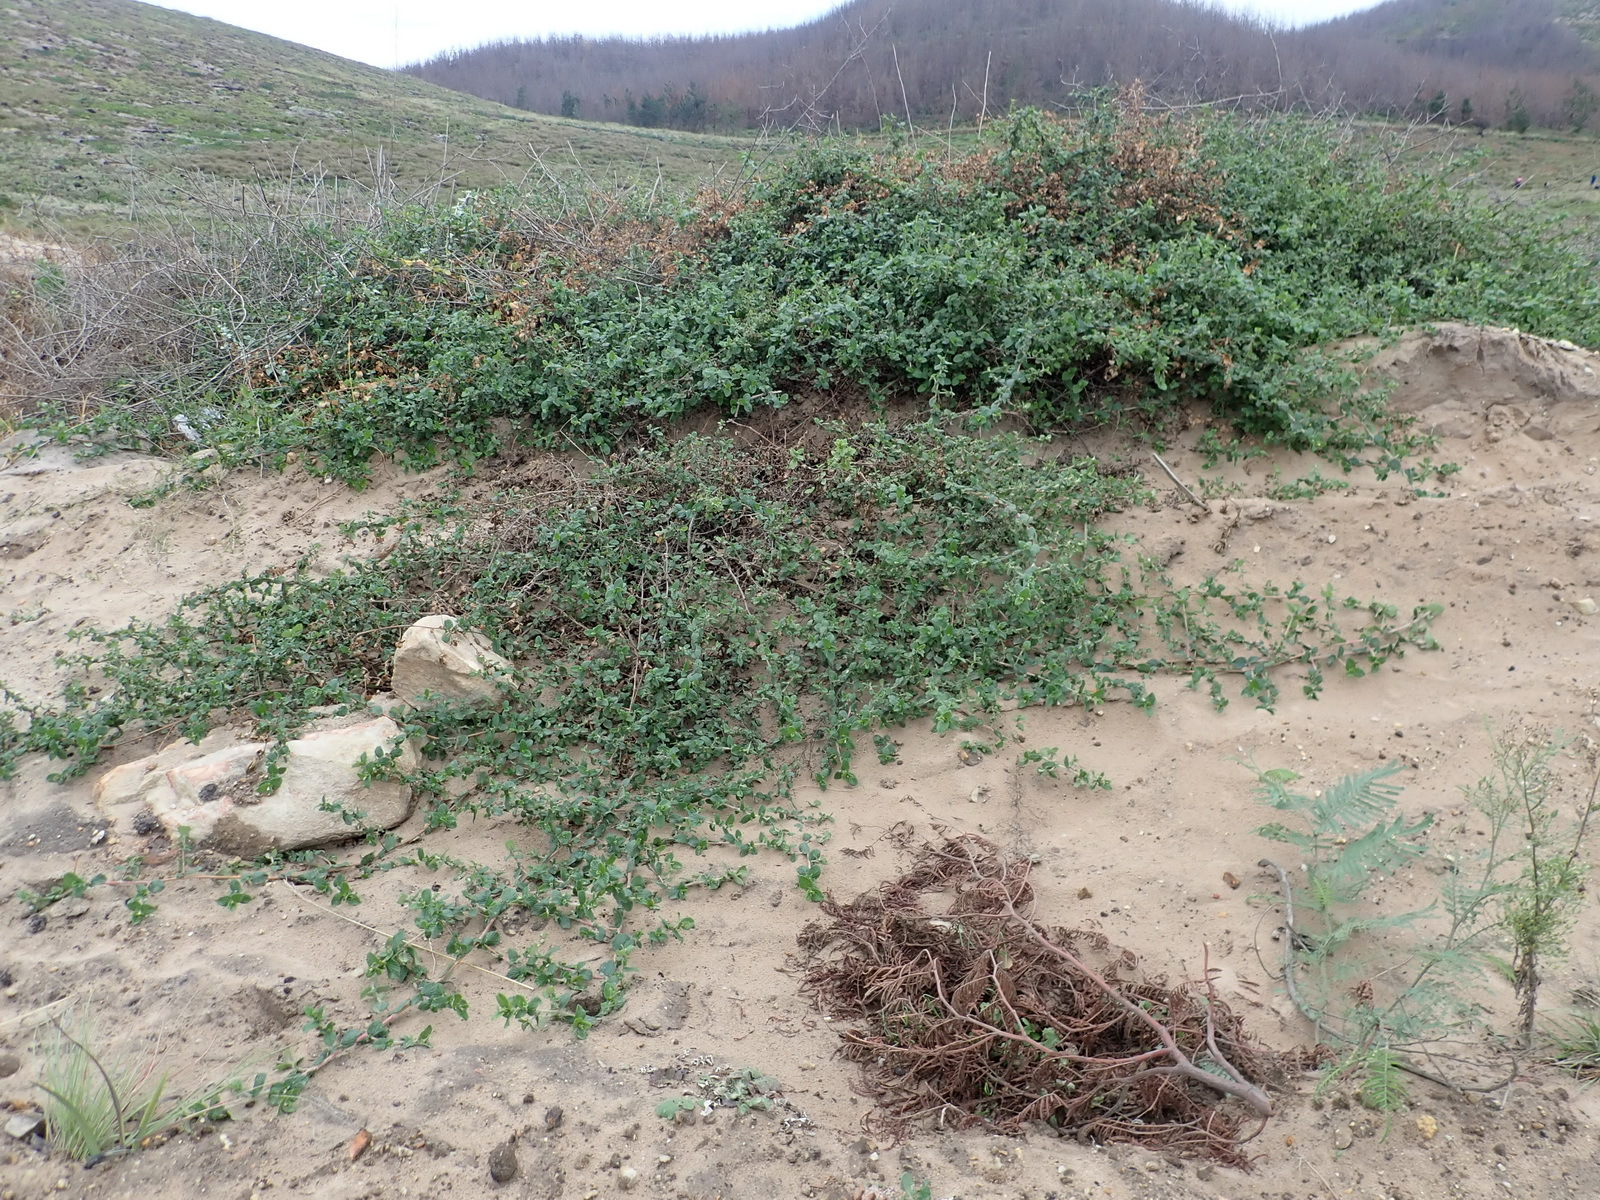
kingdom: Plantae
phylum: Tracheophyta
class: Magnoliopsida
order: Rosales
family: Rosaceae
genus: Cliffortia
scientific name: Cliffortia odorata
